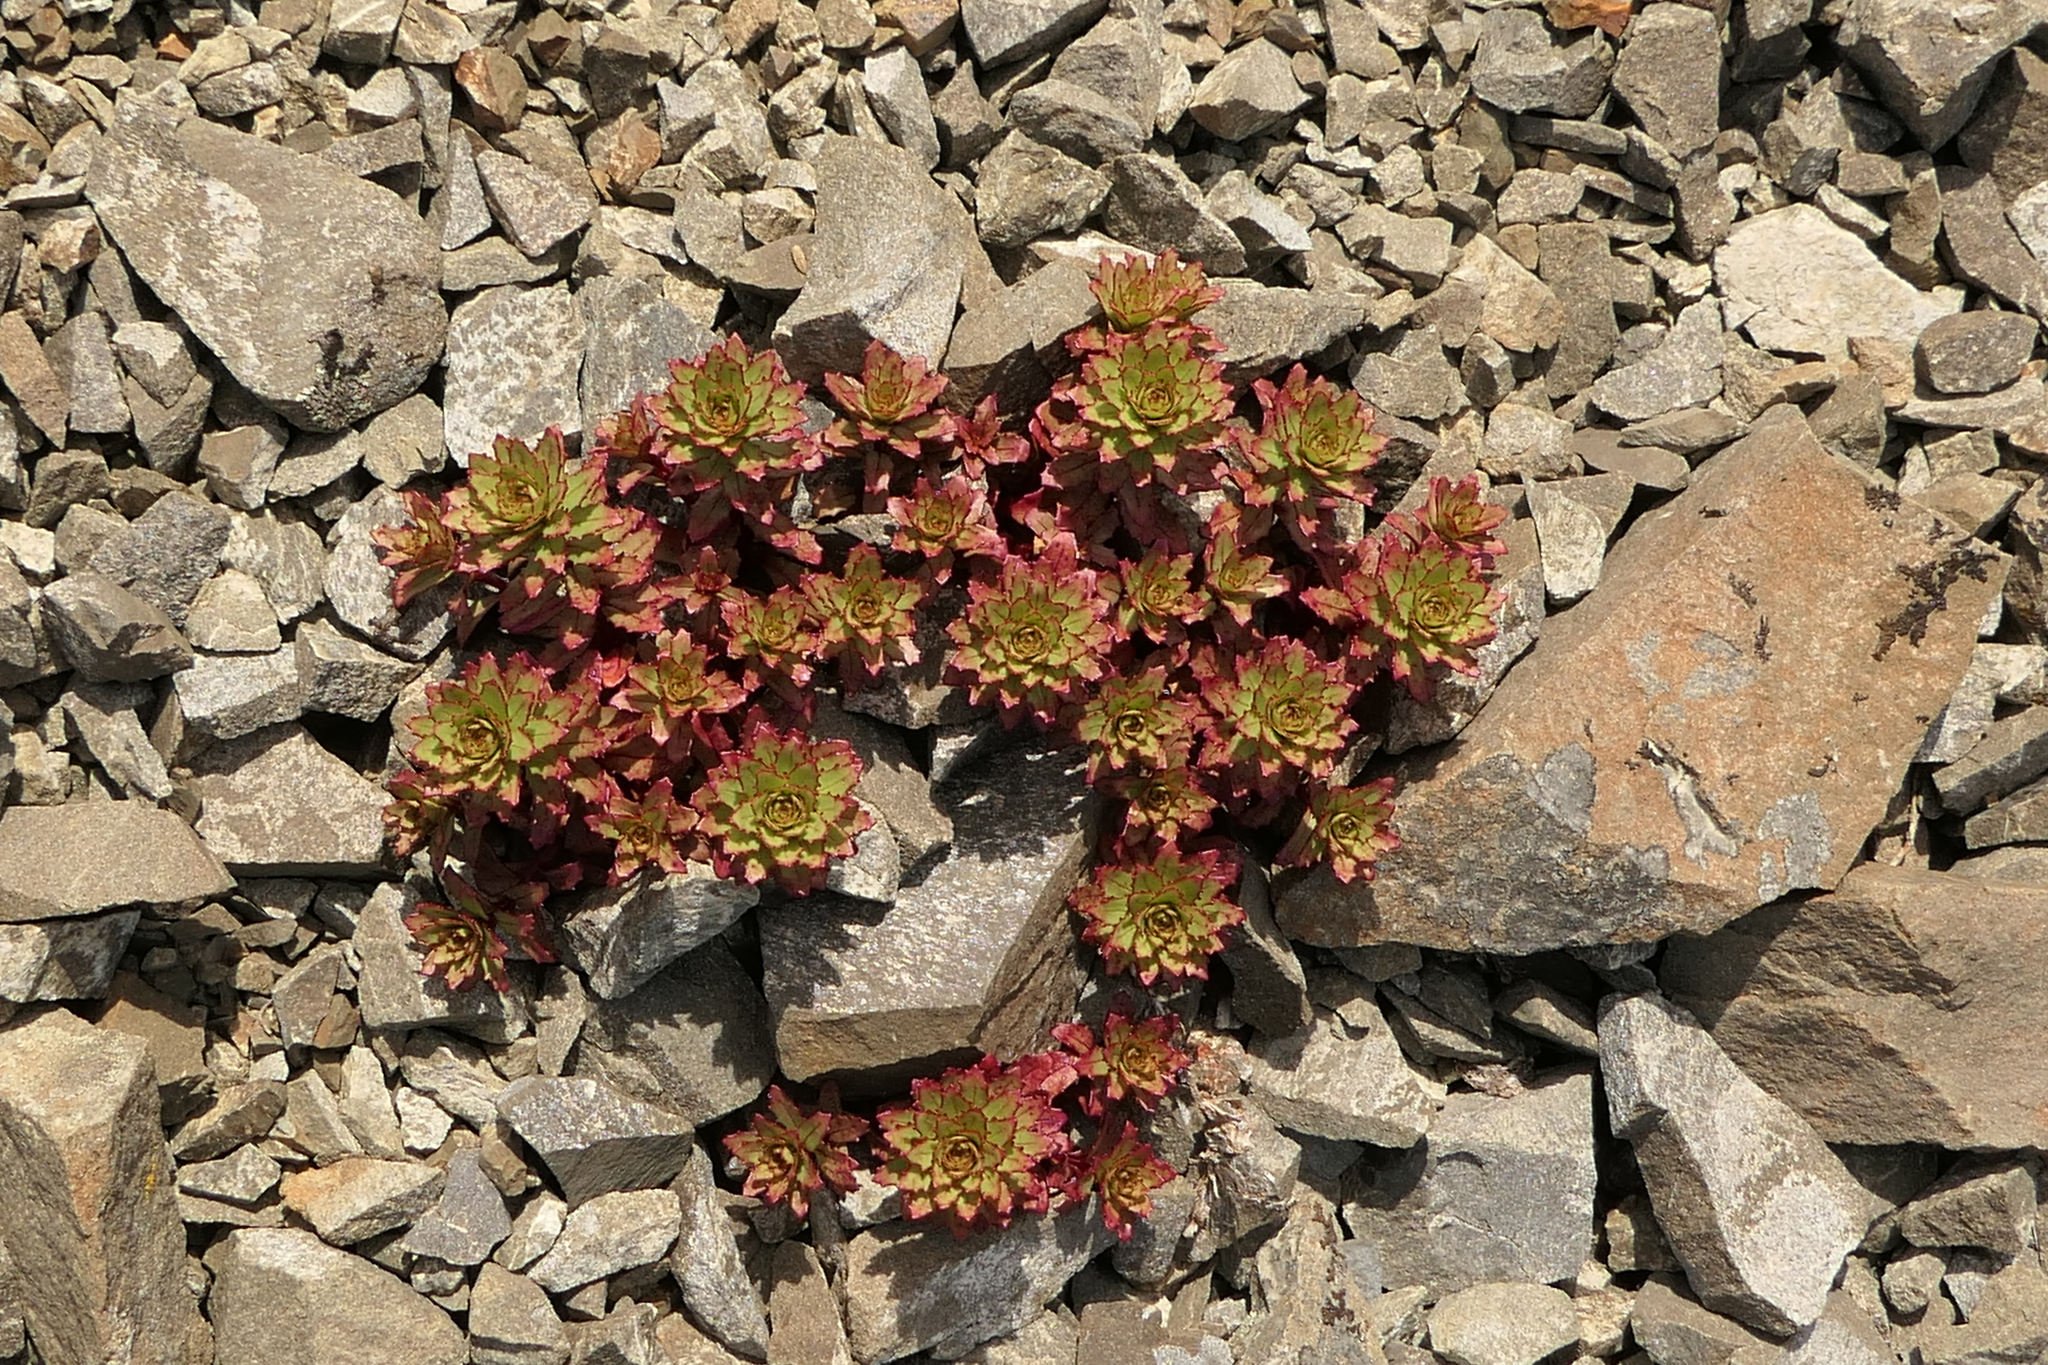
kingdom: Plantae
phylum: Tracheophyta
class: Magnoliopsida
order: Myrtales
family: Onagraceae
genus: Epilobium
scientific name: Epilobium pycnostachyum
